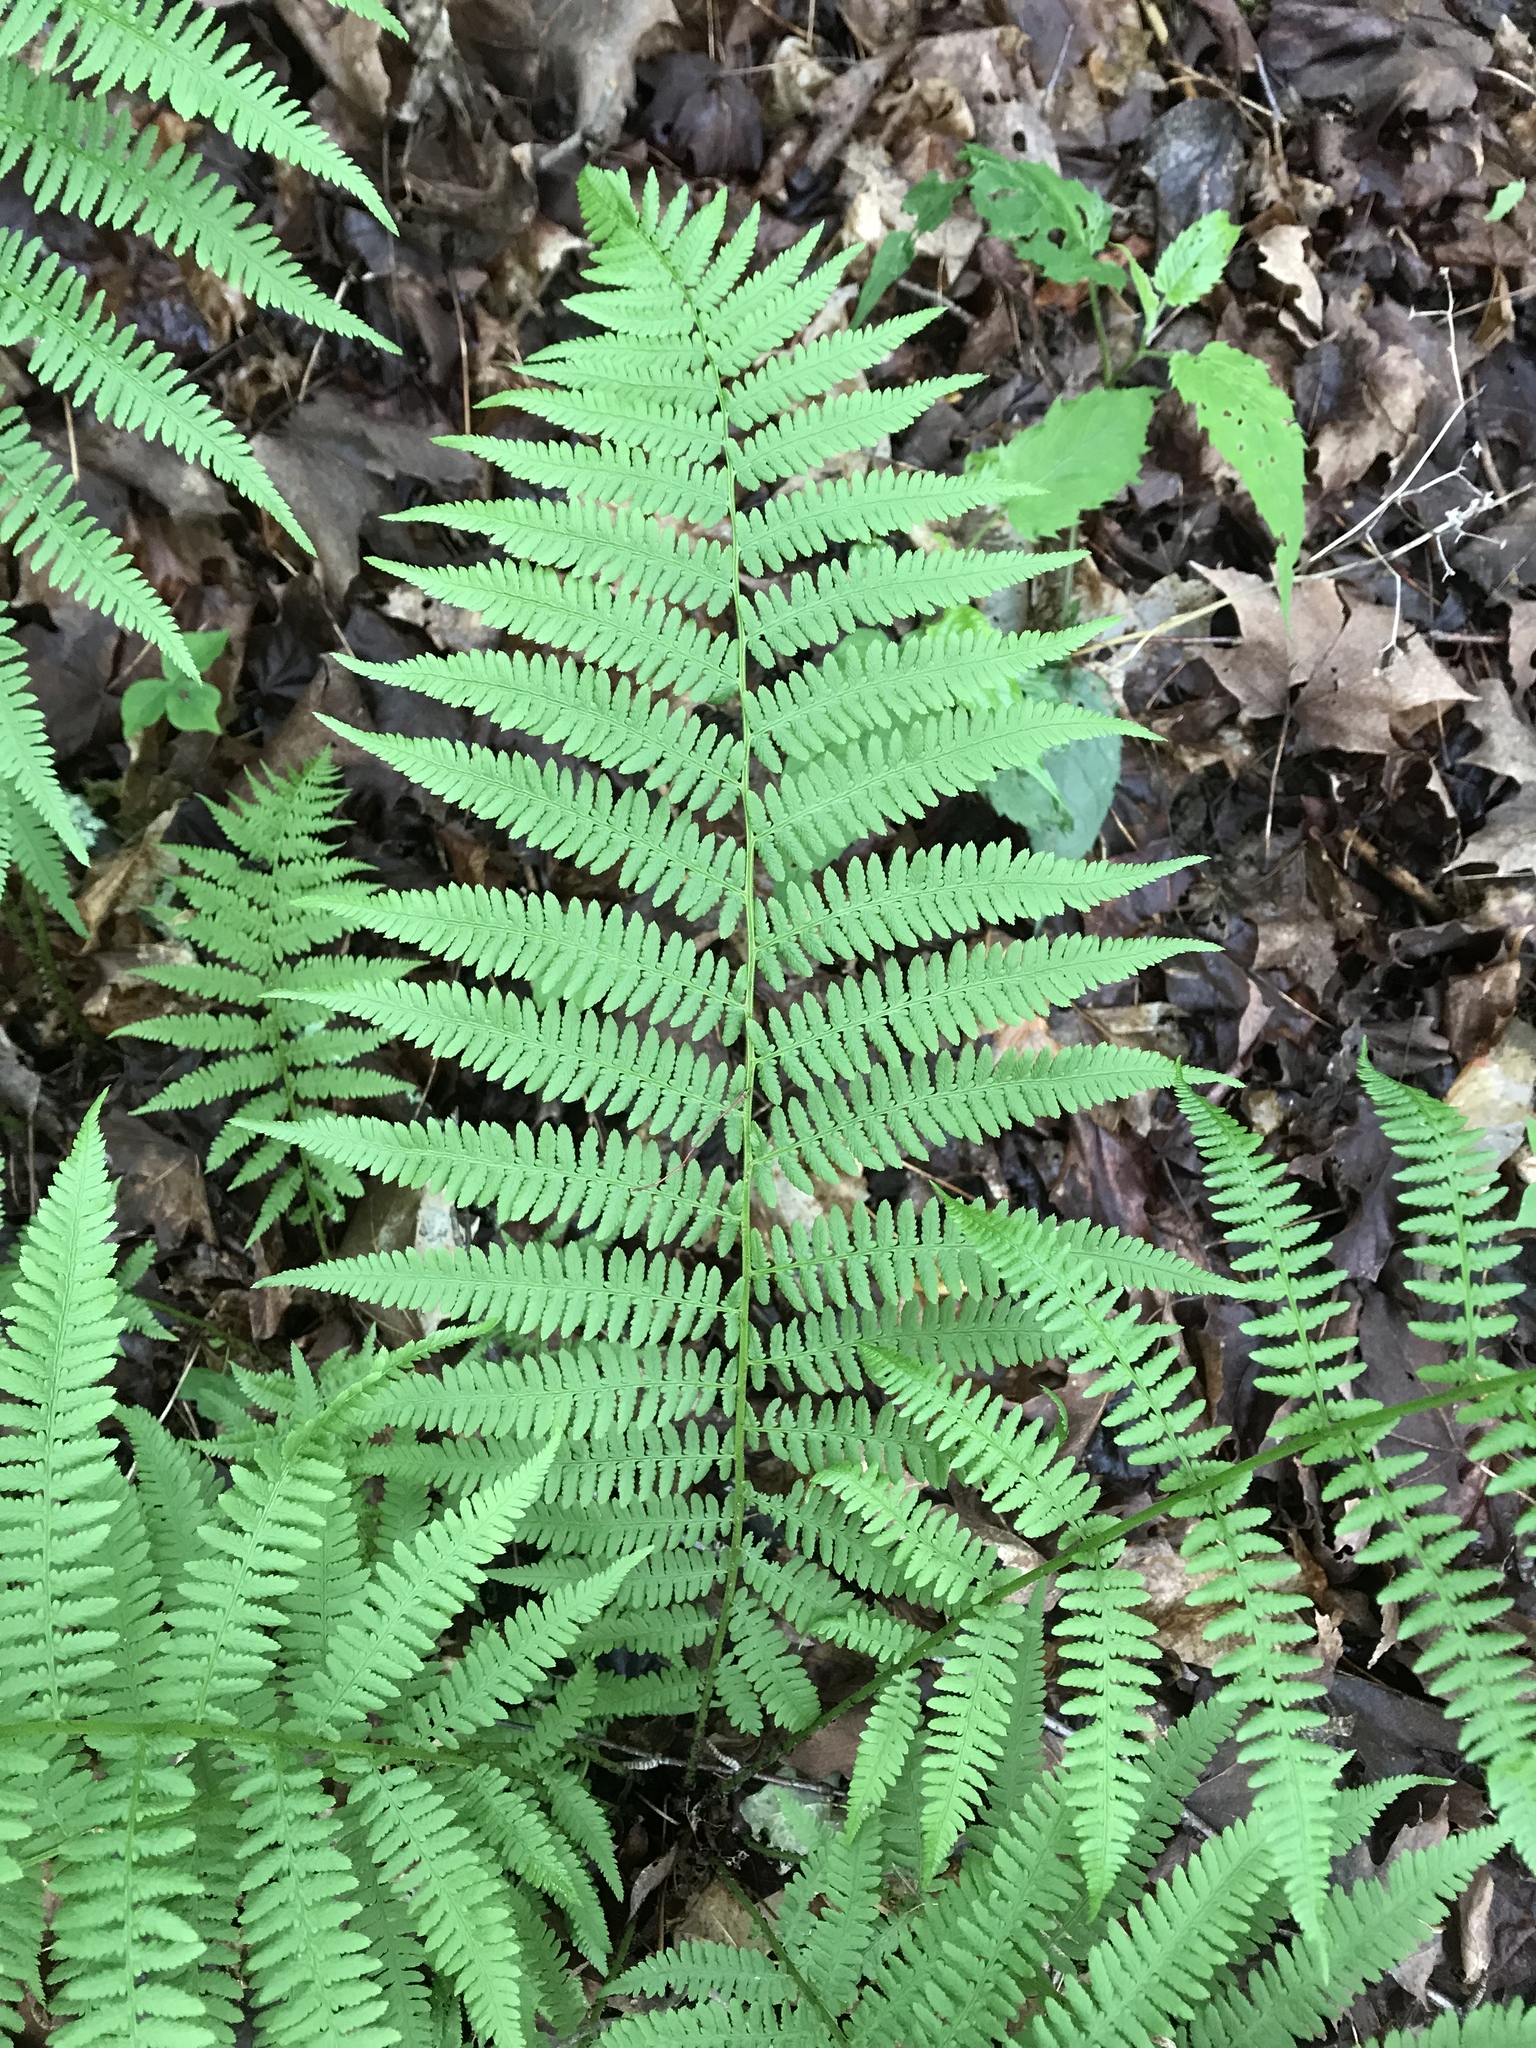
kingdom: Plantae
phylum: Tracheophyta
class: Polypodiopsida
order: Polypodiales
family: Athyriaceae
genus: Athyrium
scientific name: Athyrium angustum
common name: Northern lady fern
